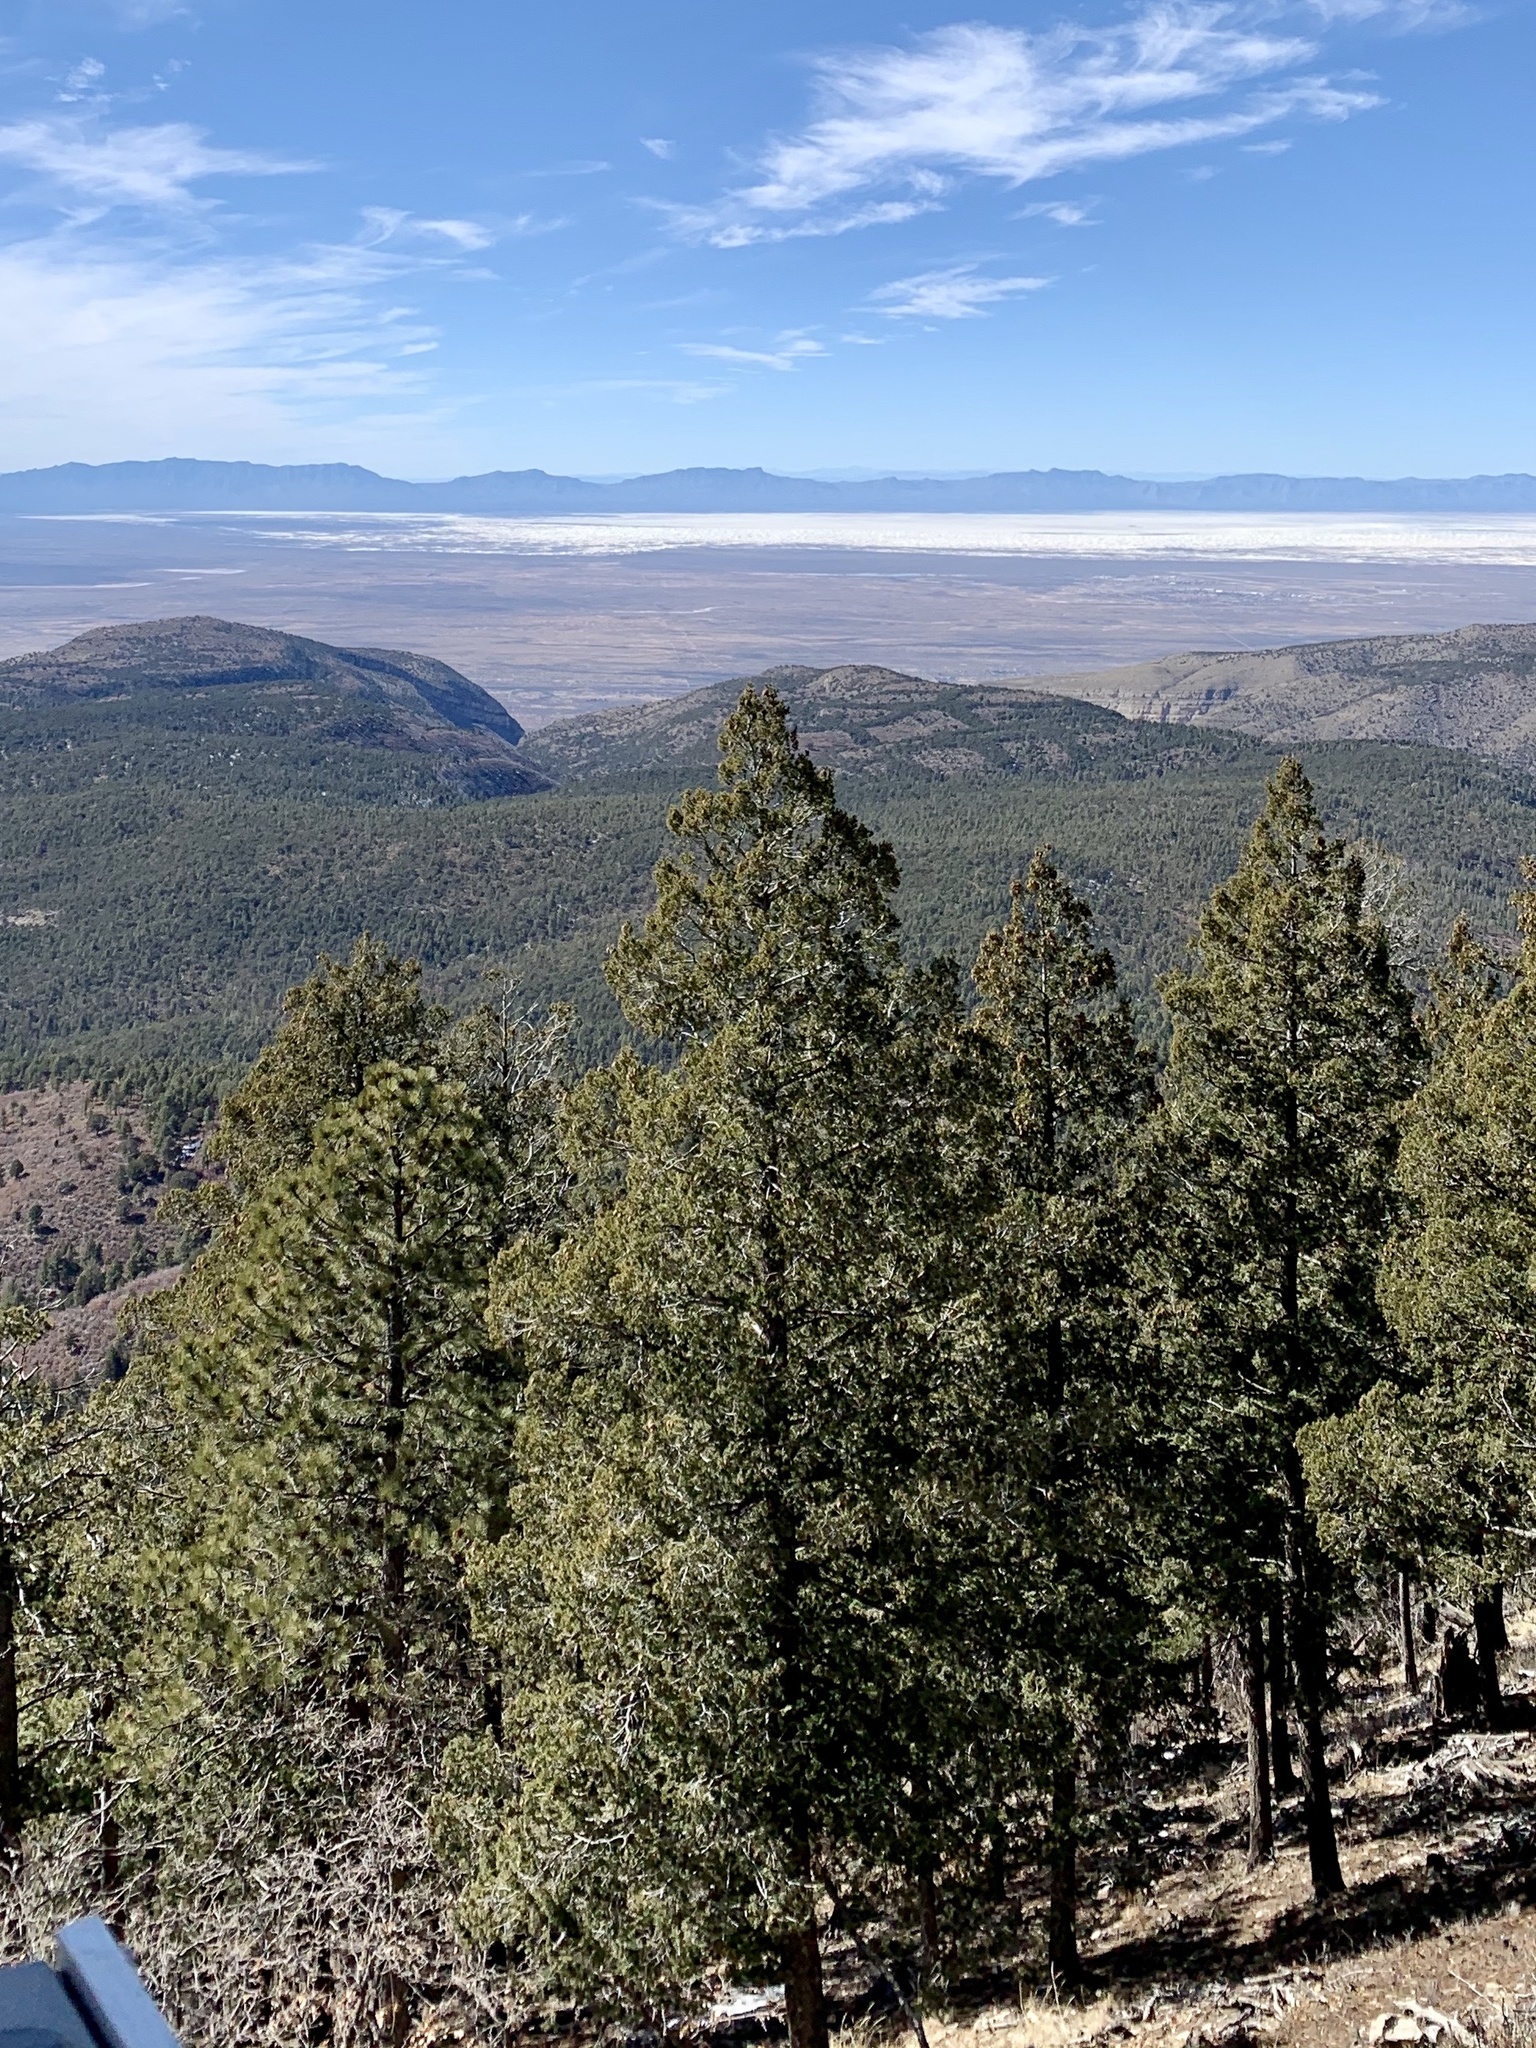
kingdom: Plantae
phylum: Tracheophyta
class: Pinopsida
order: Pinales
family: Pinaceae
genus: Pinus
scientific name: Pinus ponderosa
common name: Western yellow-pine
